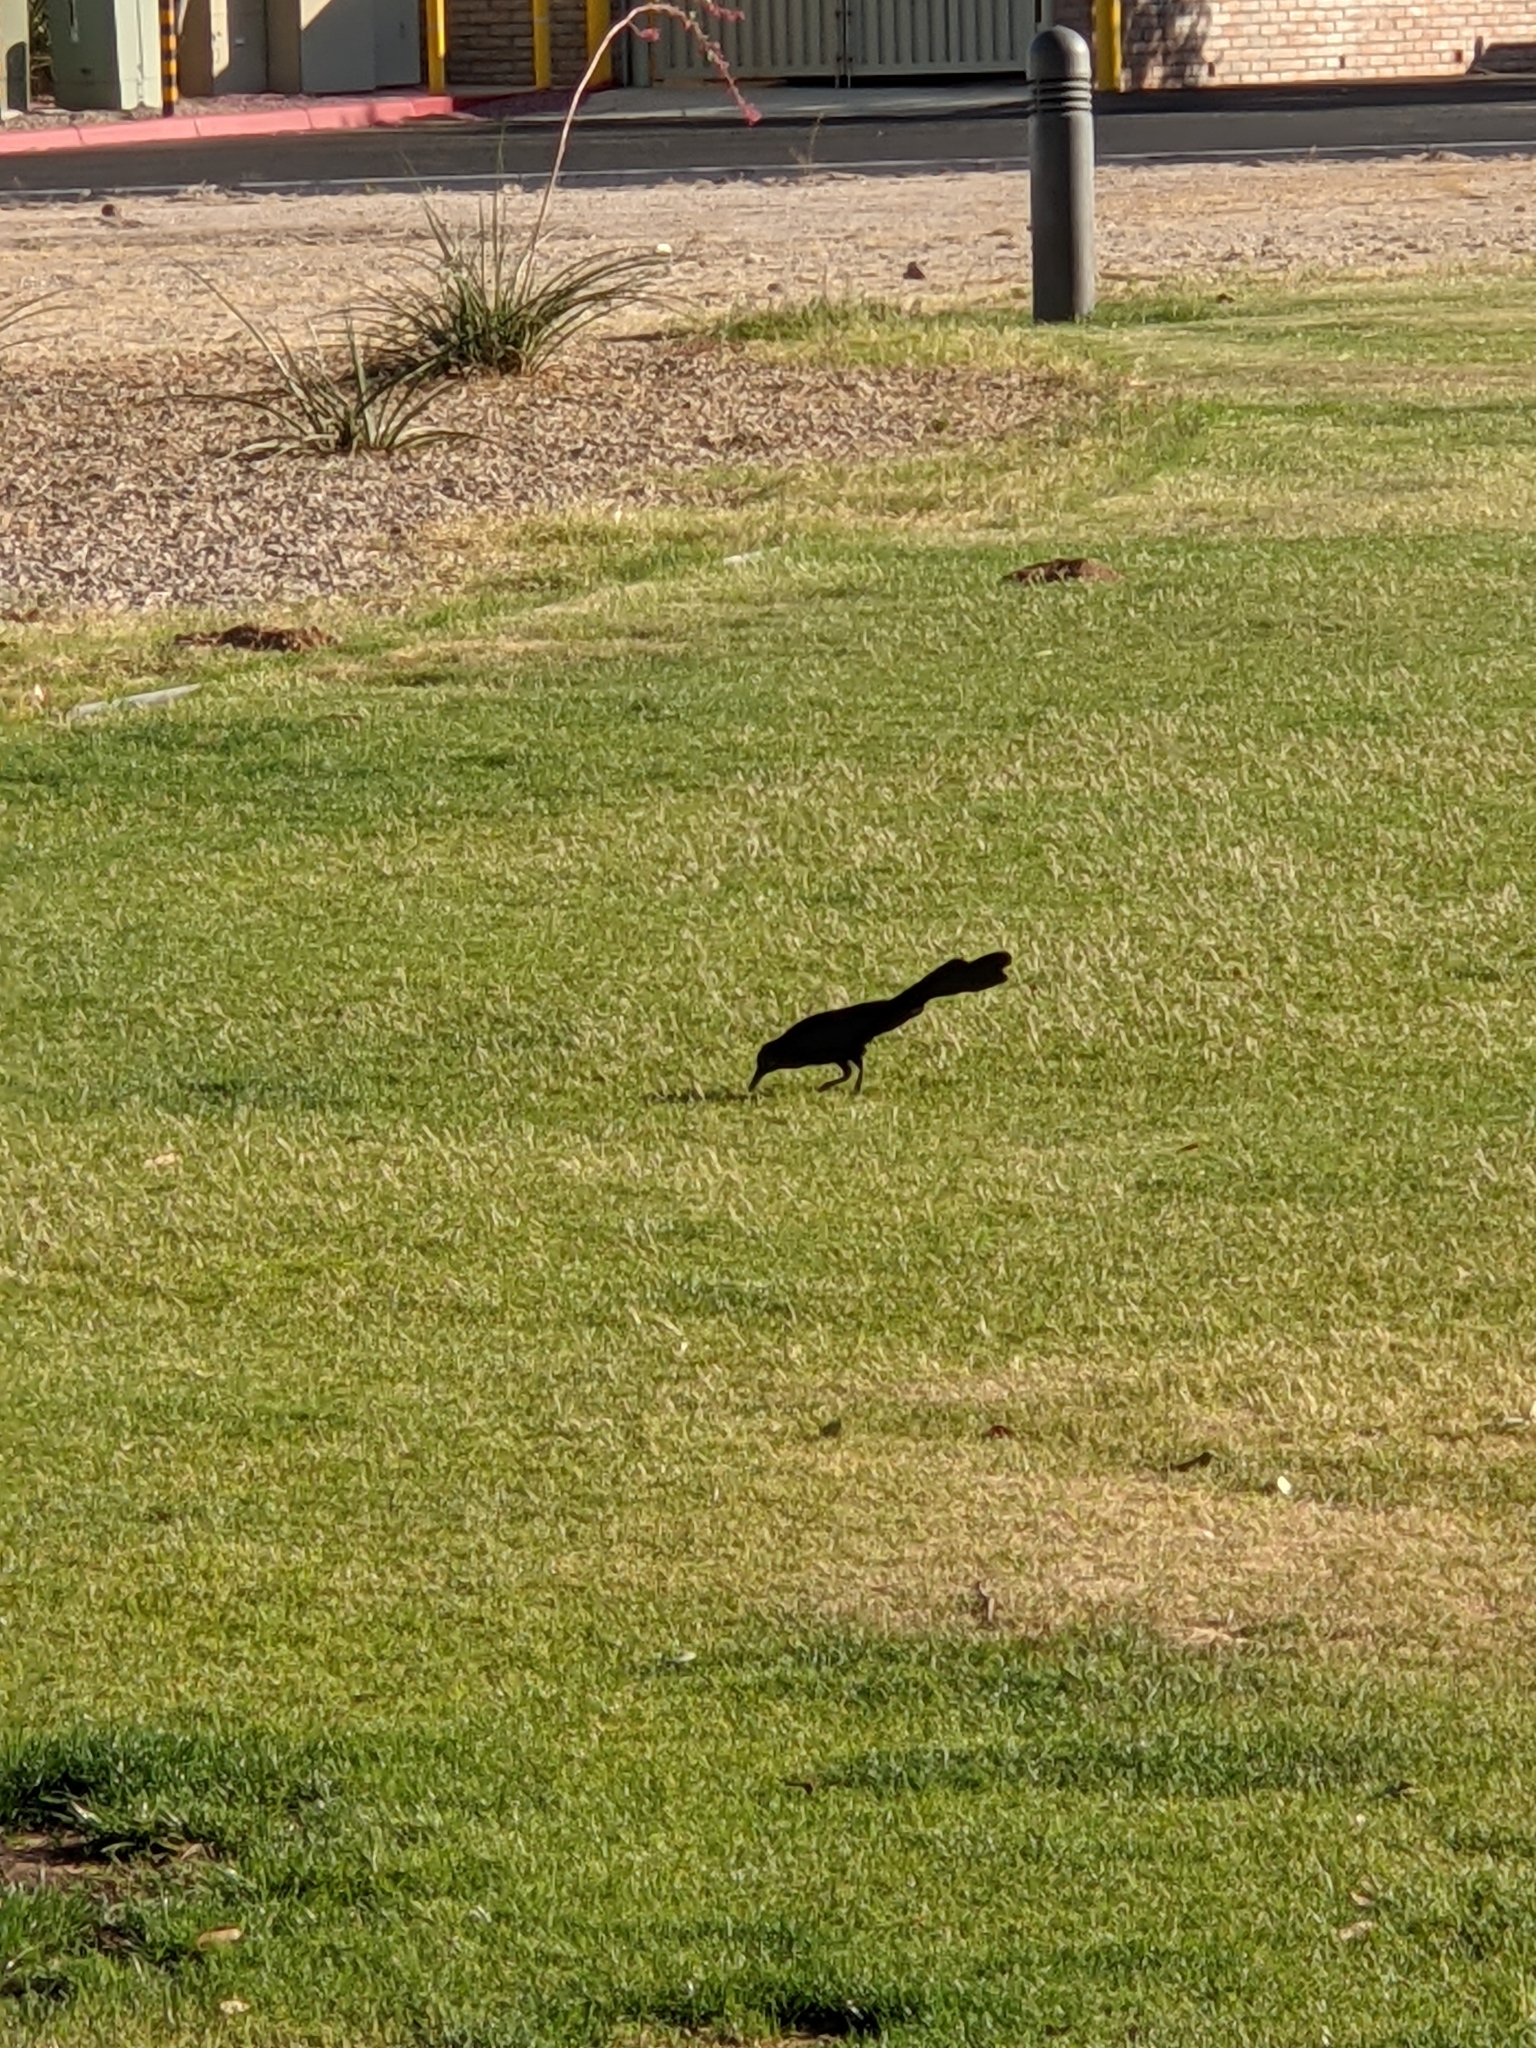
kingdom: Animalia
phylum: Chordata
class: Aves
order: Passeriformes
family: Icteridae
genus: Quiscalus
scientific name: Quiscalus mexicanus
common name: Great-tailed grackle
